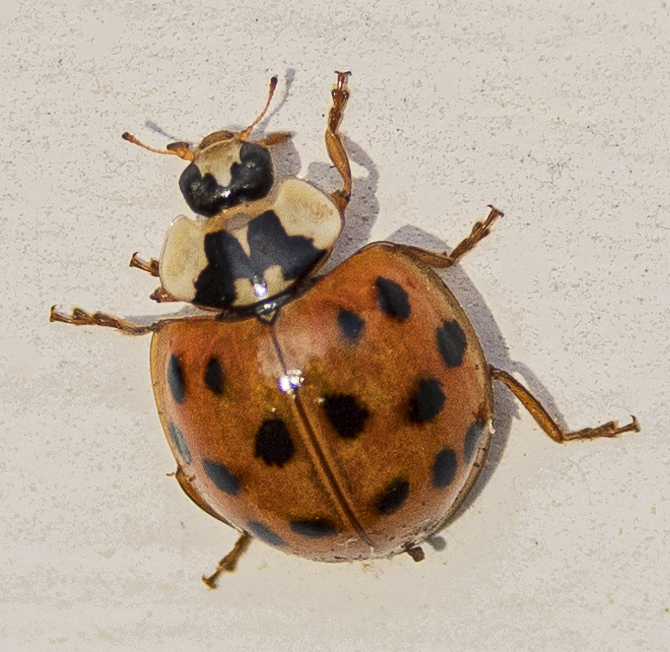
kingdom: Animalia
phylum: Arthropoda
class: Insecta
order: Coleoptera
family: Coccinellidae
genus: Harmonia
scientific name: Harmonia axyridis
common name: Harlequin ladybird
